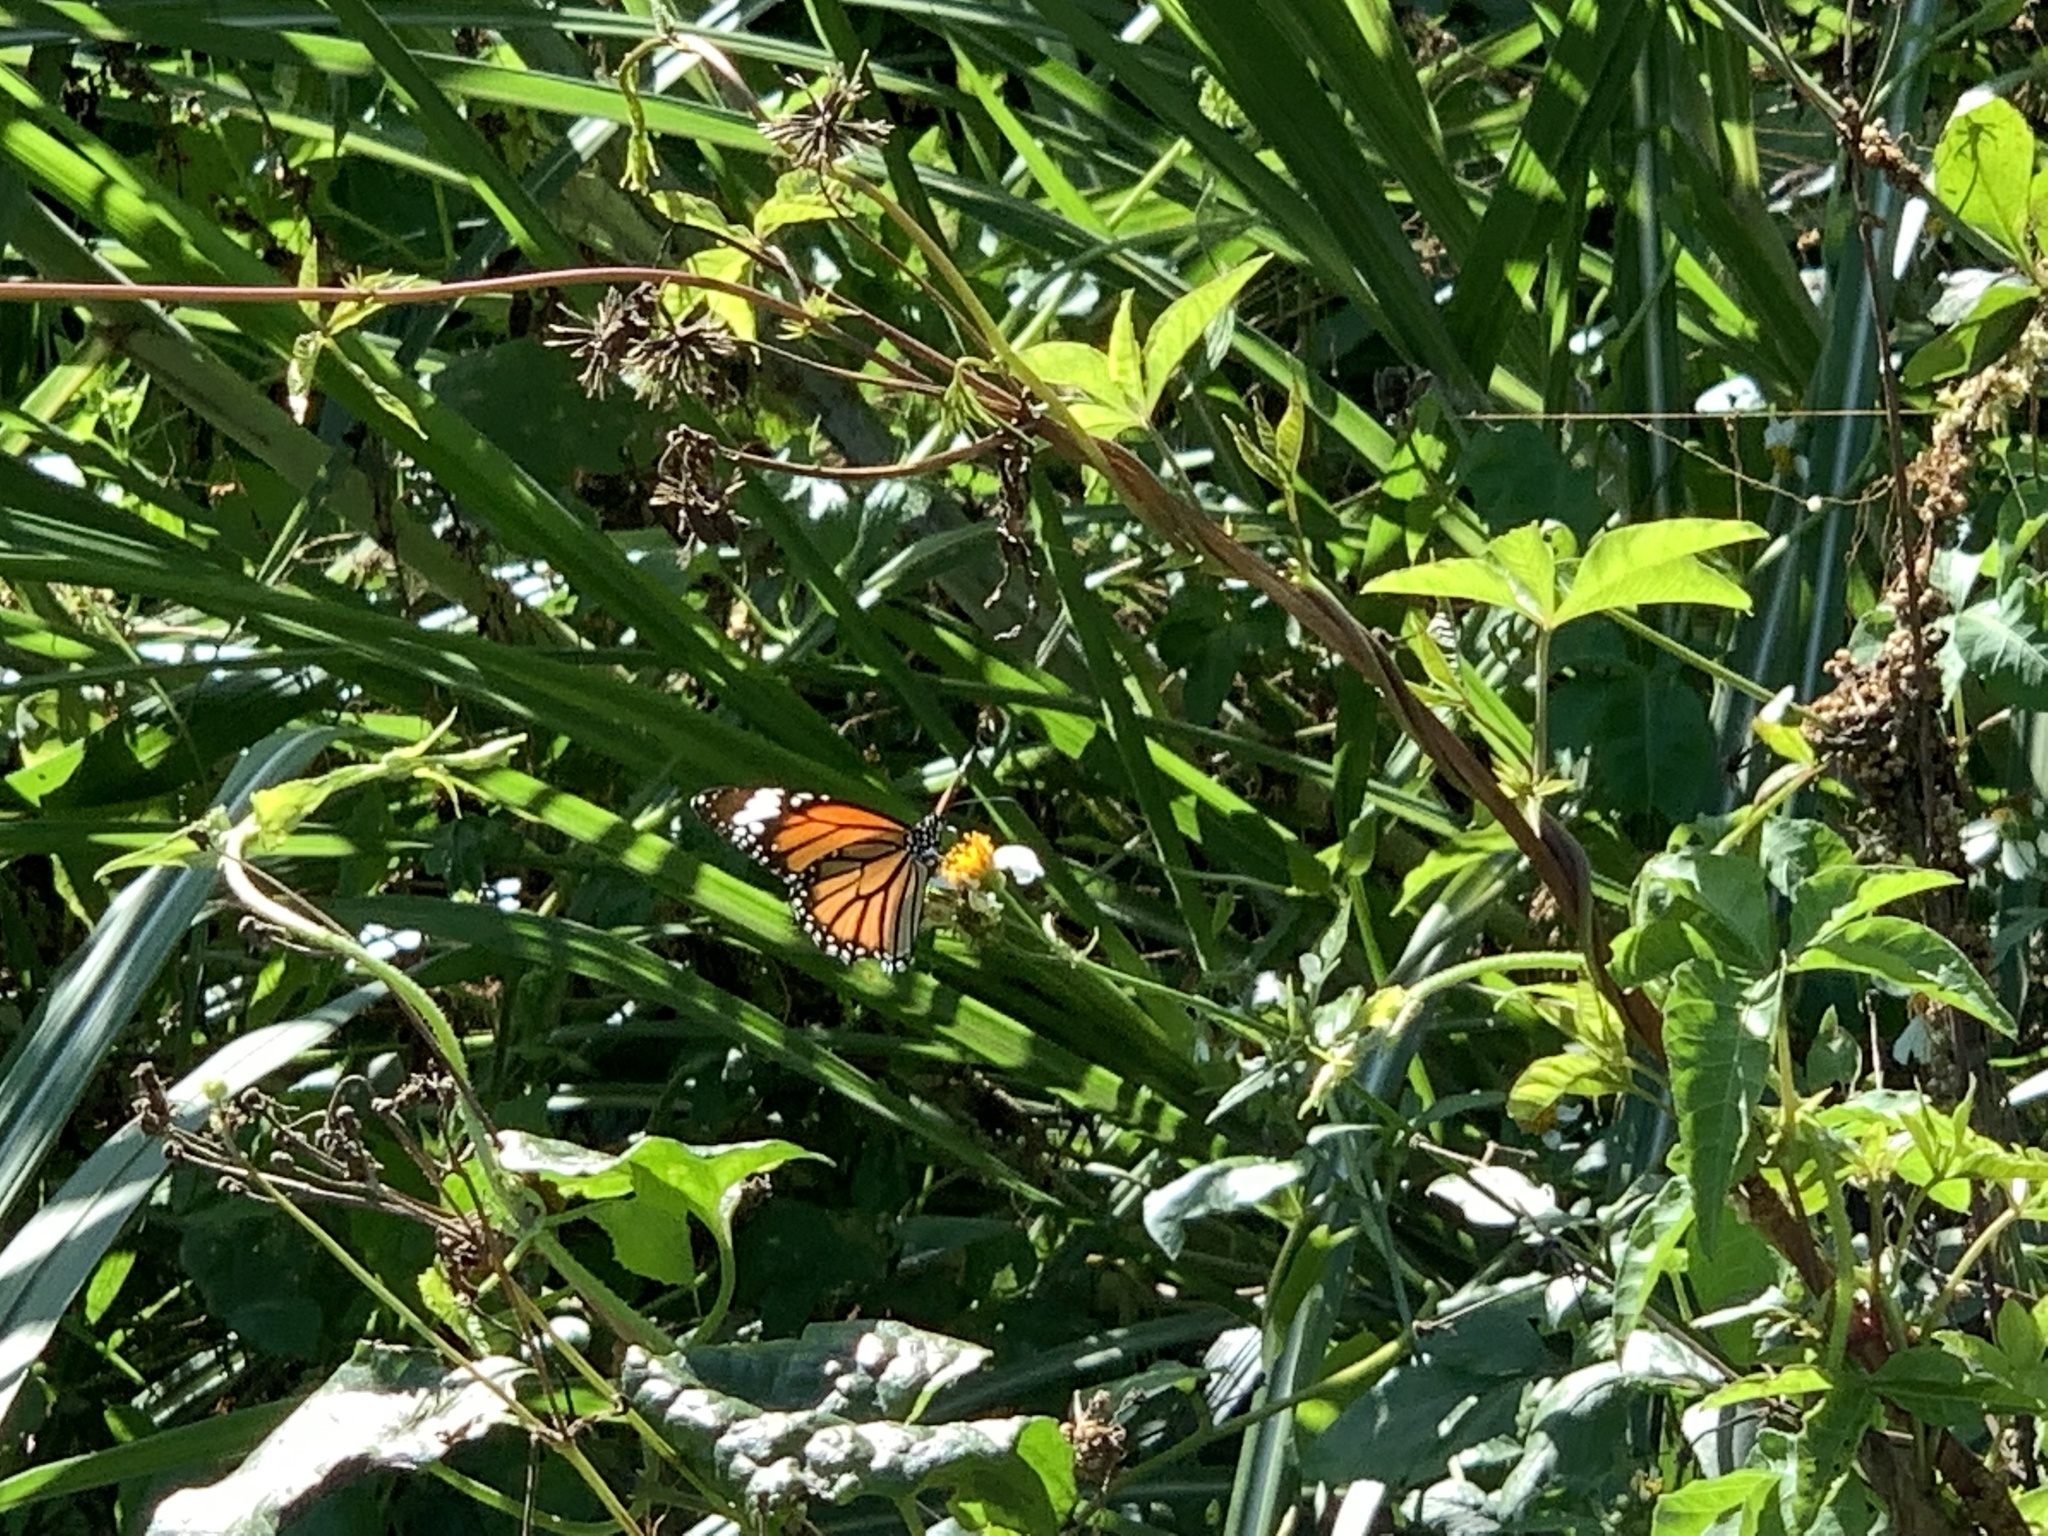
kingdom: Animalia
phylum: Arthropoda
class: Insecta
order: Lepidoptera
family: Nymphalidae
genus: Danaus
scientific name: Danaus genutia
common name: Common tiger butterfly
